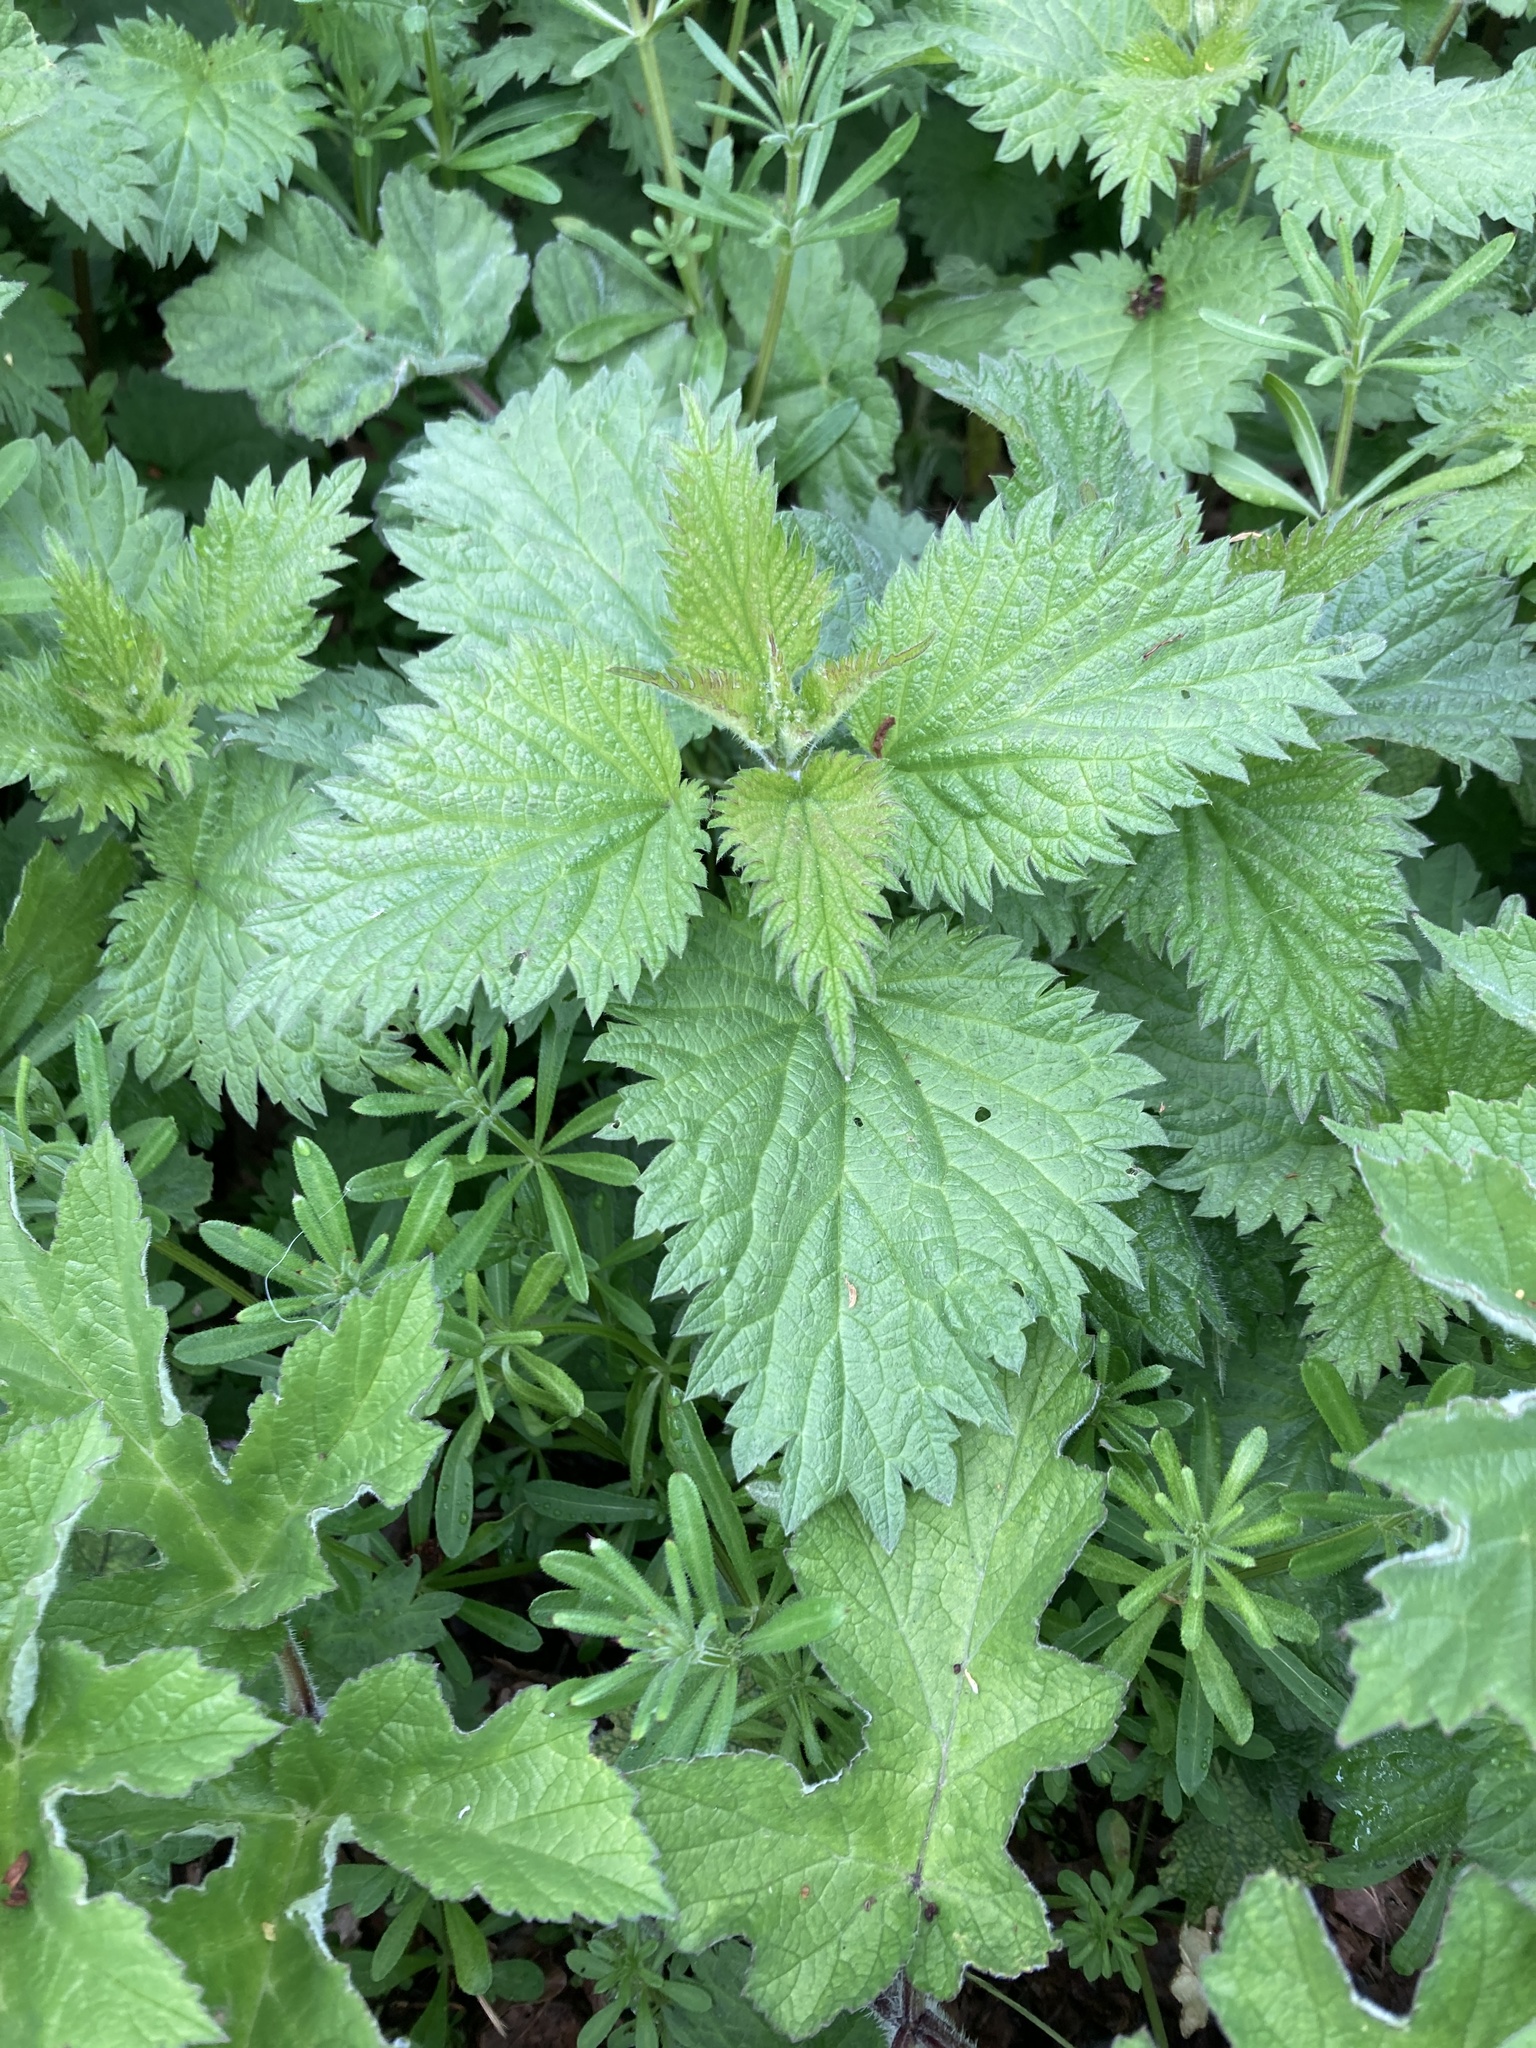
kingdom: Plantae
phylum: Tracheophyta
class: Magnoliopsida
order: Rosales
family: Urticaceae
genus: Urtica
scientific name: Urtica dioica
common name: Common nettle
